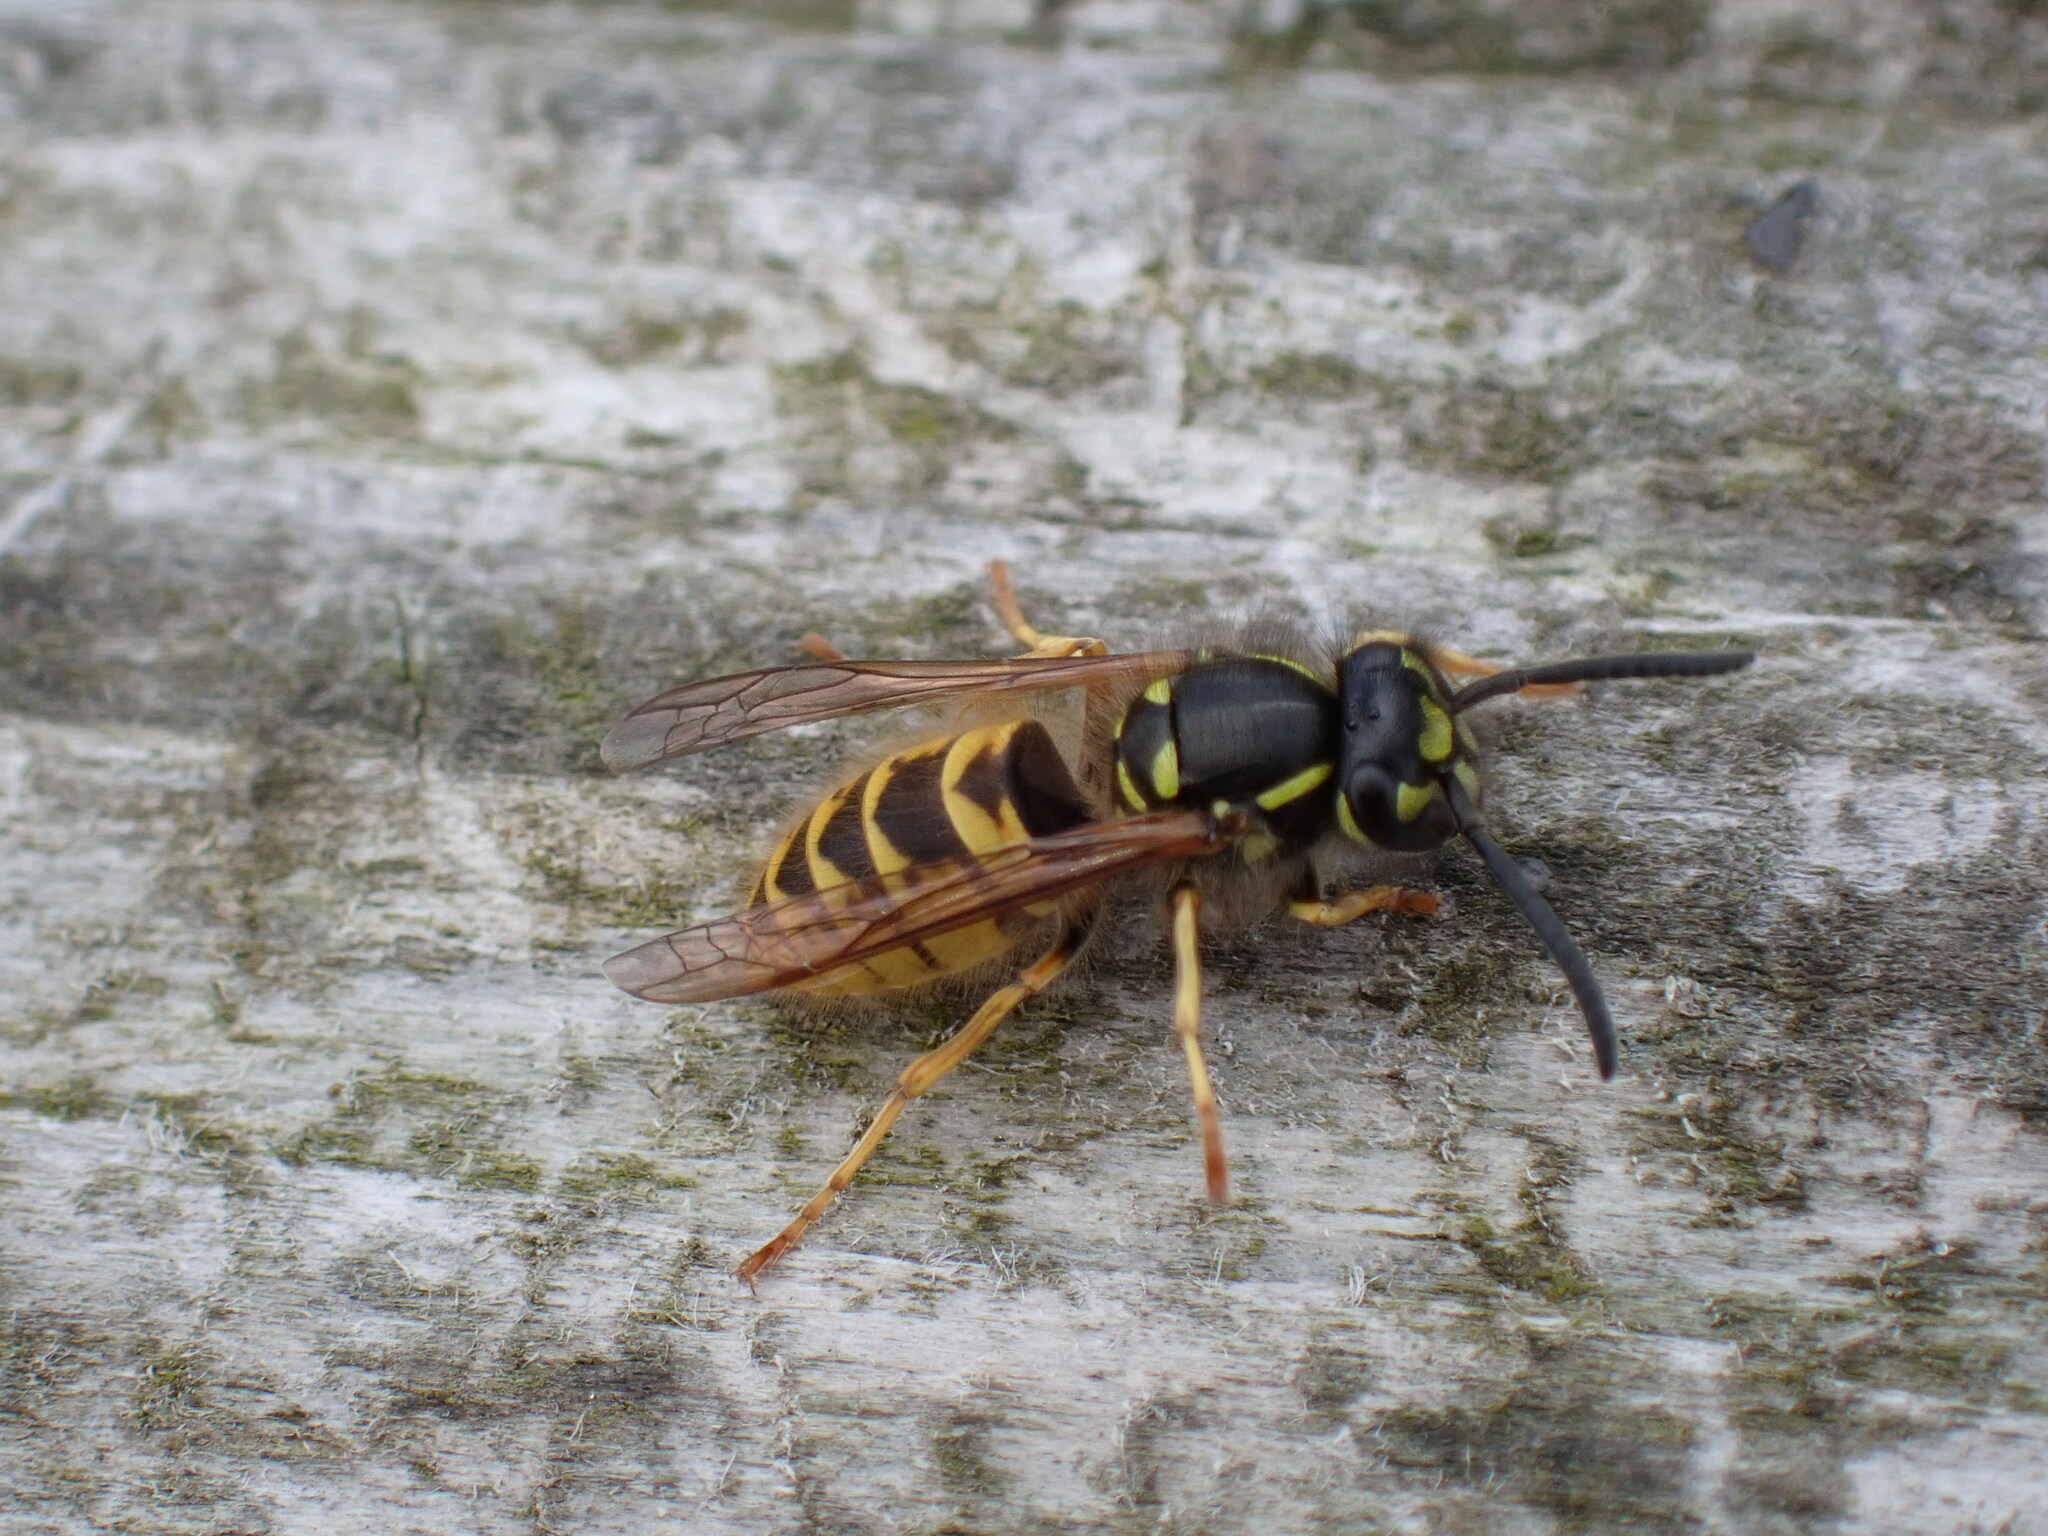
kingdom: Animalia
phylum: Arthropoda
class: Insecta
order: Hymenoptera
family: Vespidae
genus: Vespula
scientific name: Vespula vulgaris
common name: Common wasp
